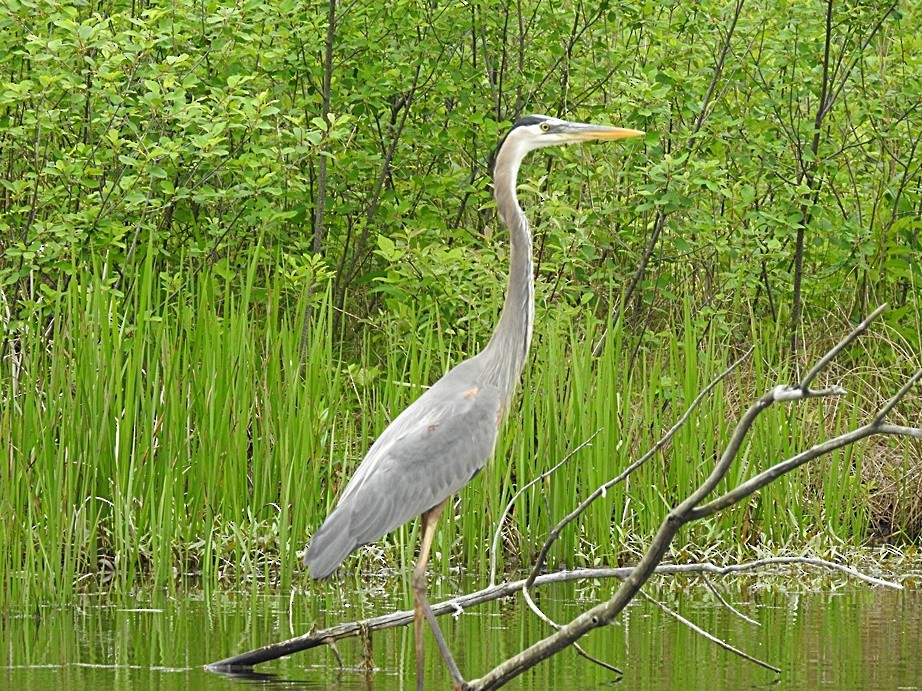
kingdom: Animalia
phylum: Chordata
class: Aves
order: Pelecaniformes
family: Ardeidae
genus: Ardea
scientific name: Ardea herodias
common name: Great blue heron
